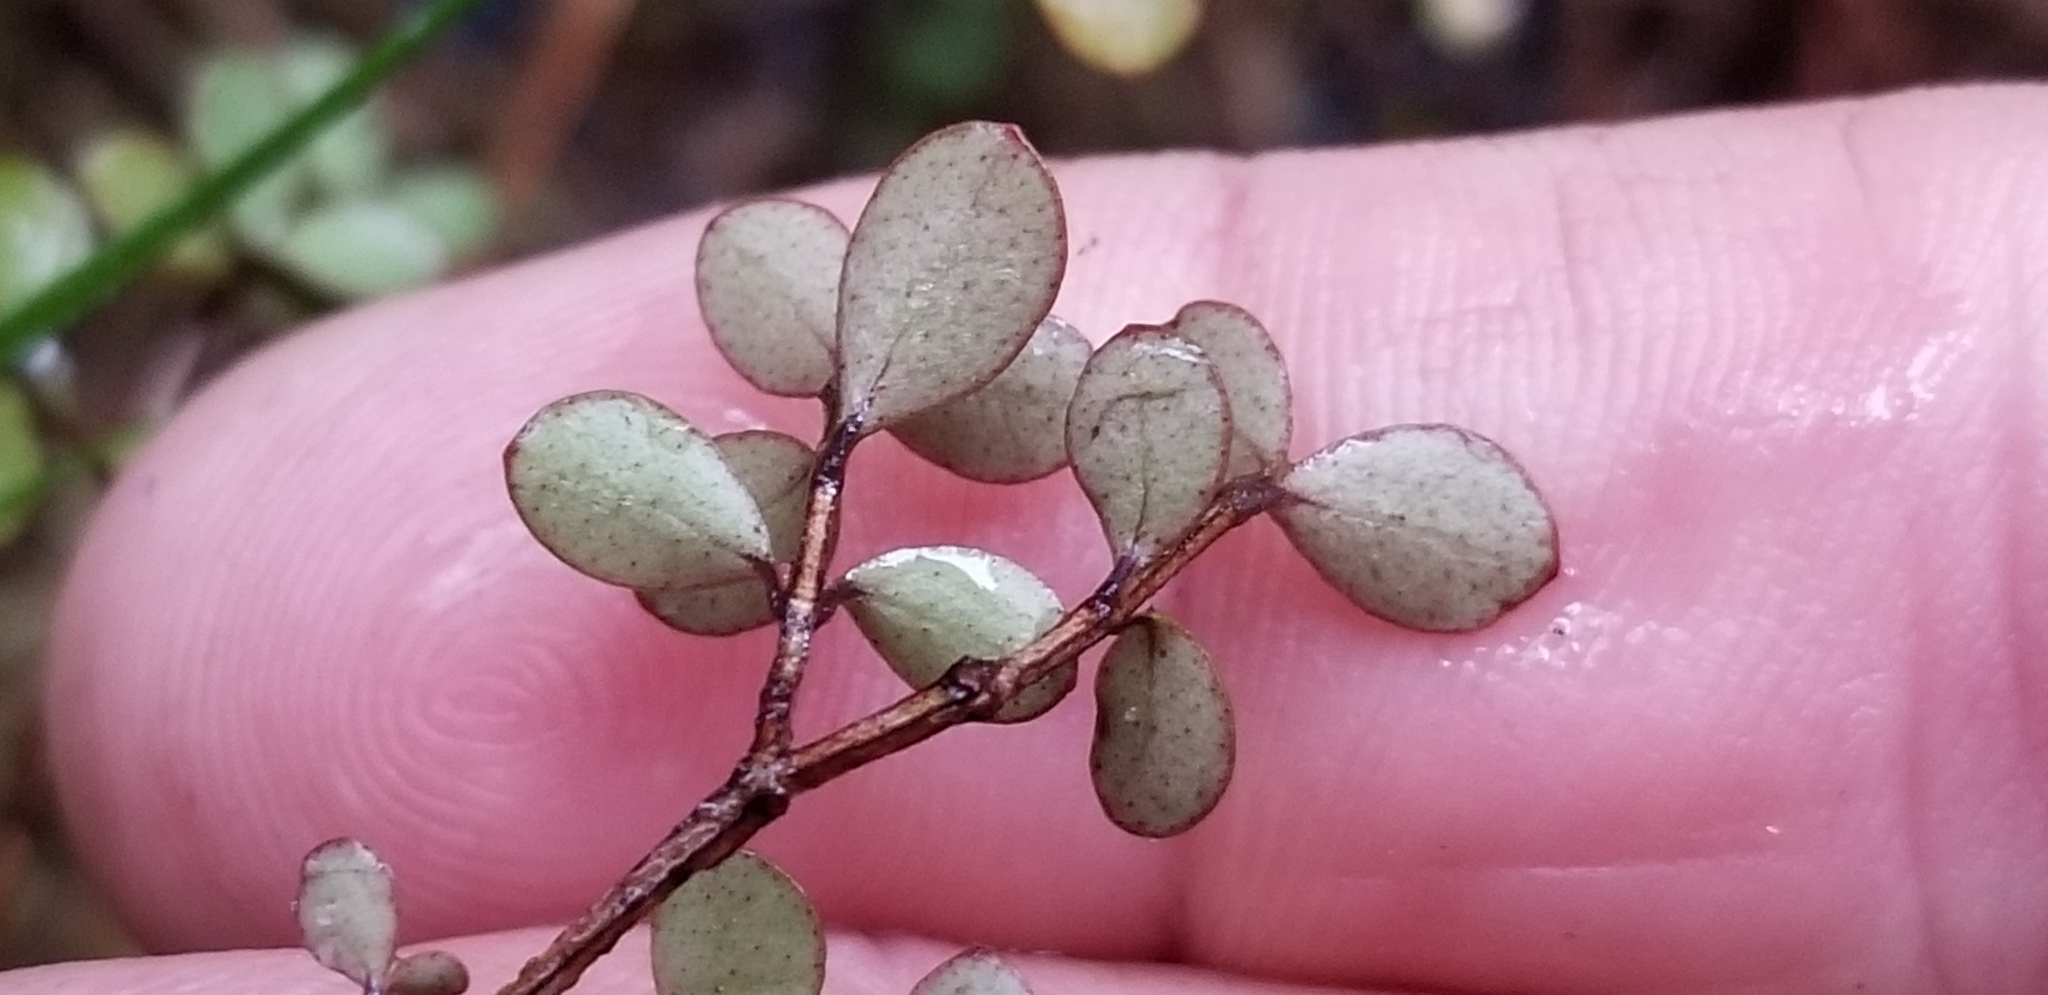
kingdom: Plantae
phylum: Tracheophyta
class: Magnoliopsida
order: Myrtales
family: Myrtaceae
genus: Neomyrtus
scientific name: Neomyrtus pedunculata
